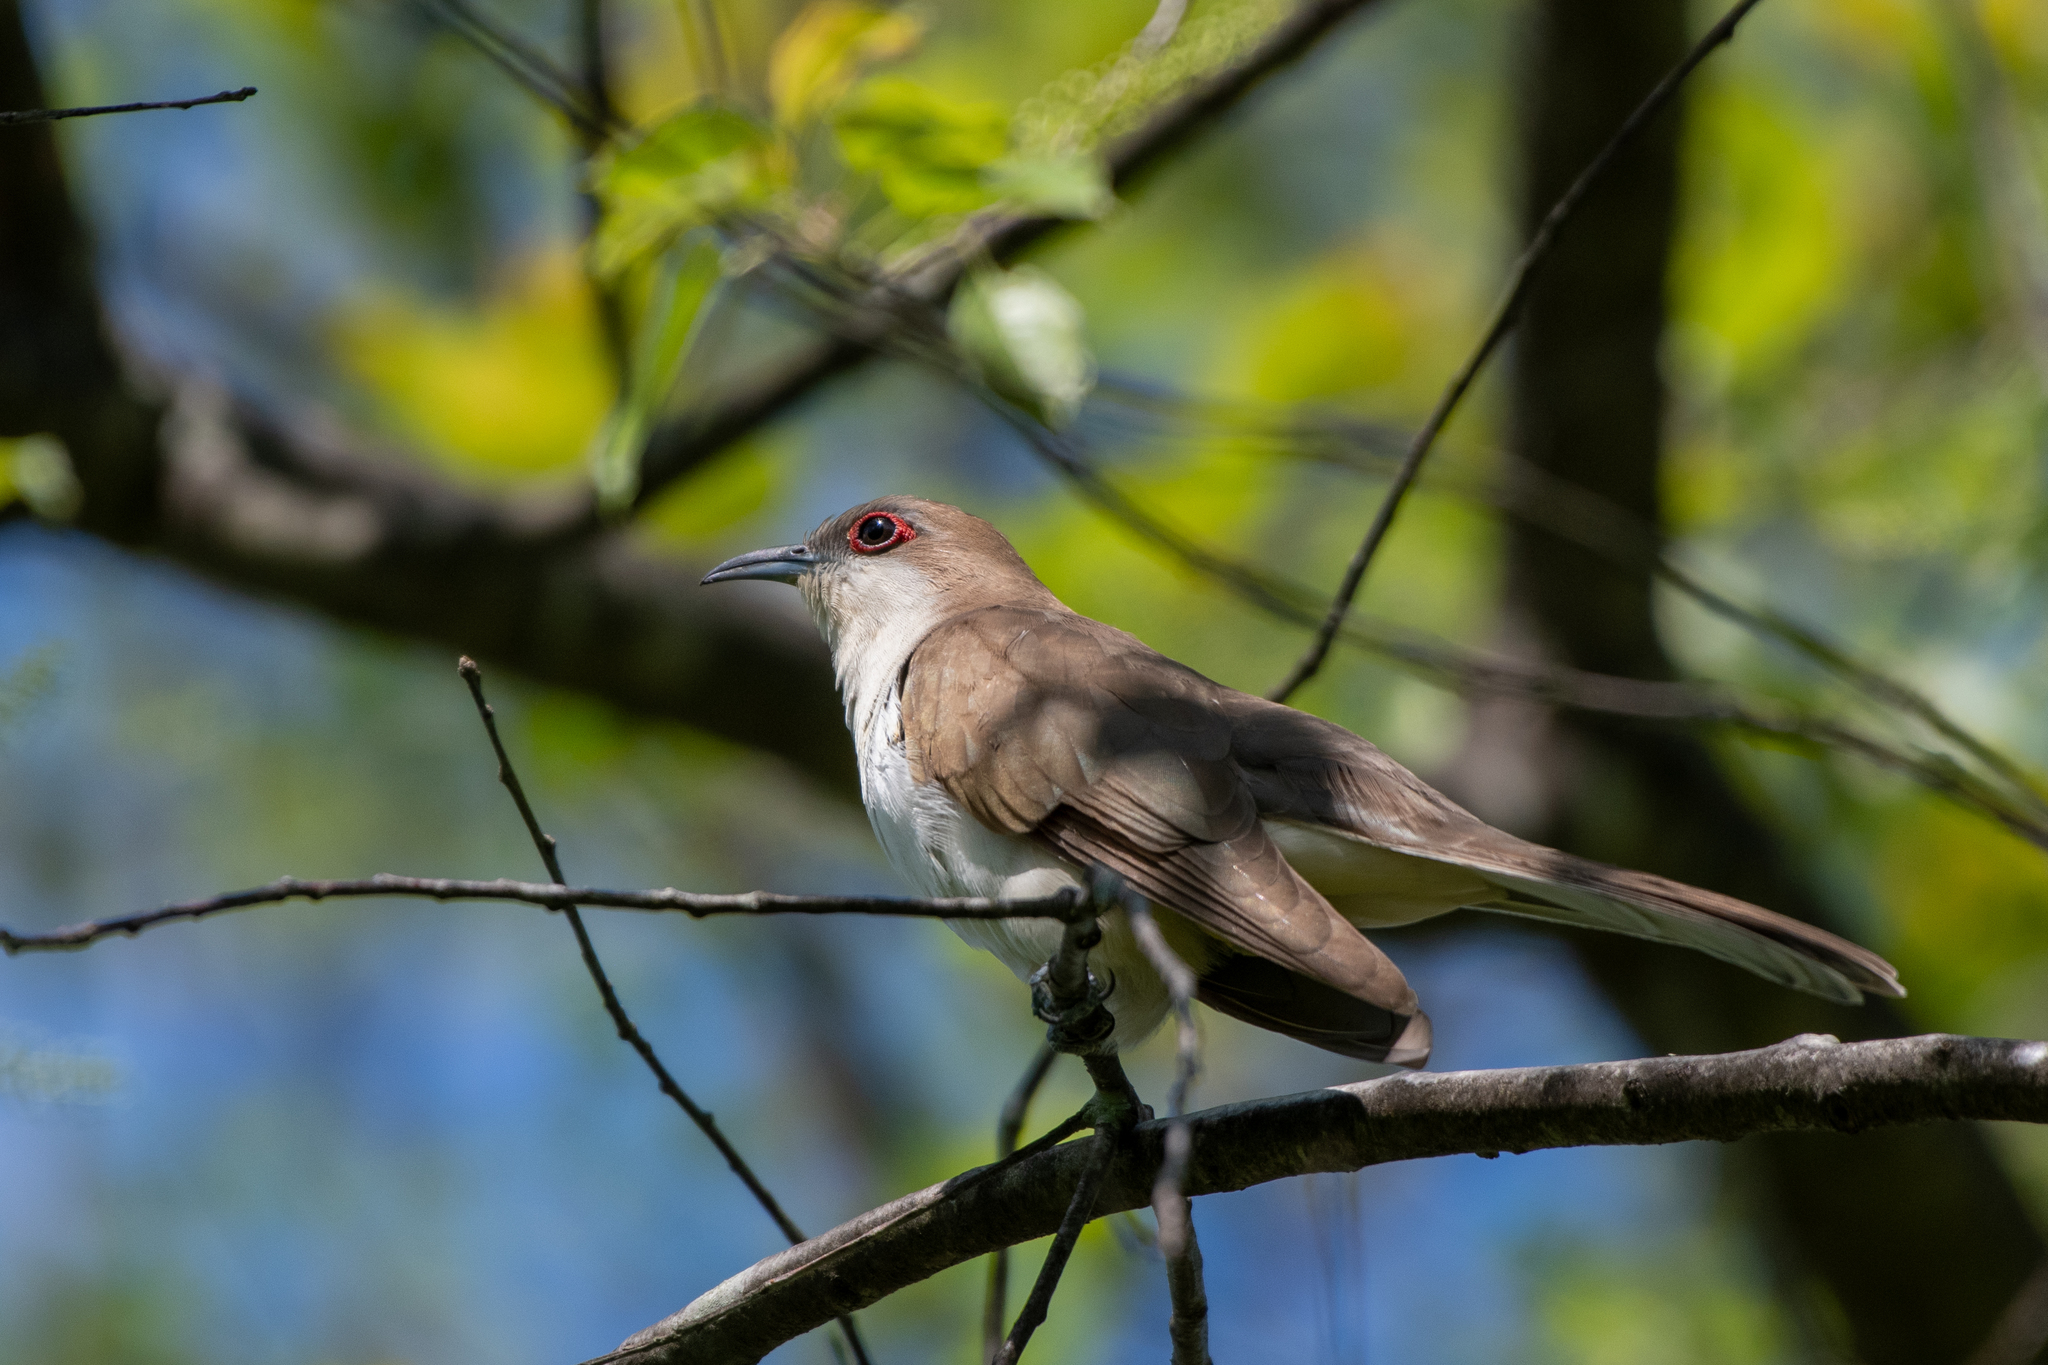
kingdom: Animalia
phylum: Chordata
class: Aves
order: Cuculiformes
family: Cuculidae
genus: Coccyzus
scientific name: Coccyzus erythropthalmus
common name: Black-billed cuckoo
